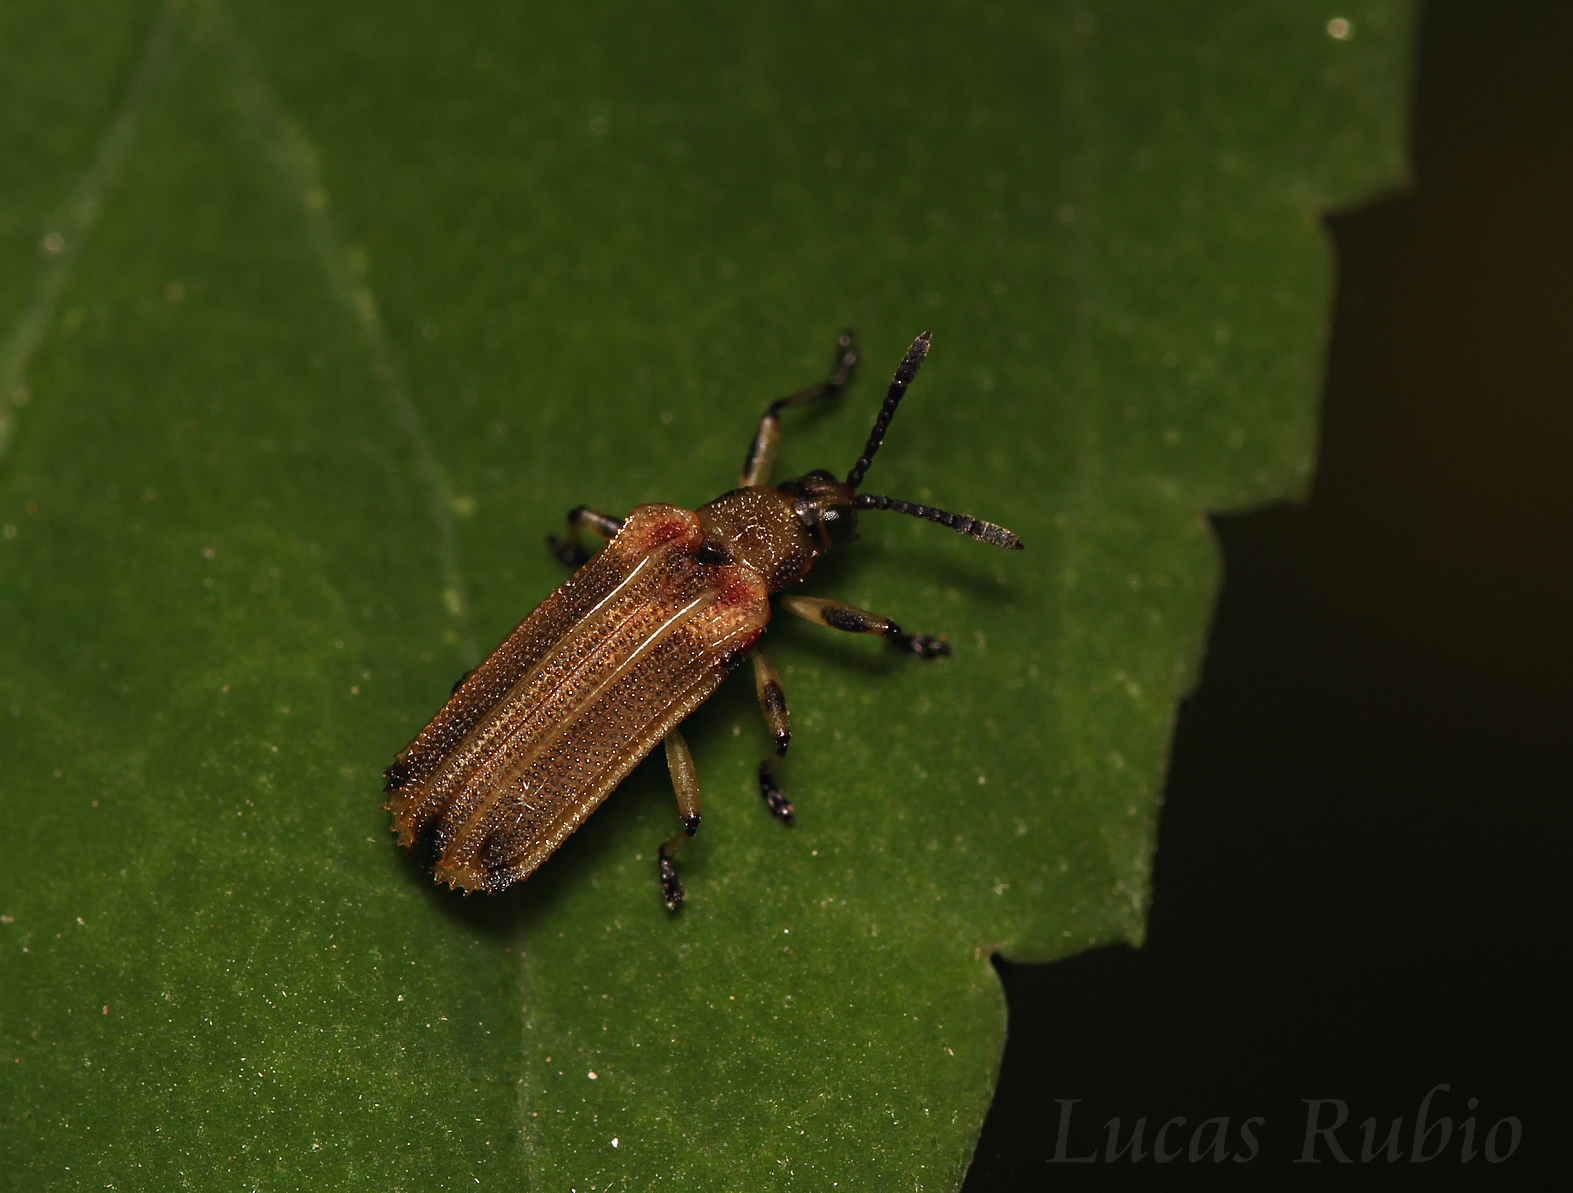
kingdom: Animalia
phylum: Arthropoda
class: Insecta
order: Coleoptera
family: Chrysomelidae
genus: Heterispa
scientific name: Heterispa costipennis
